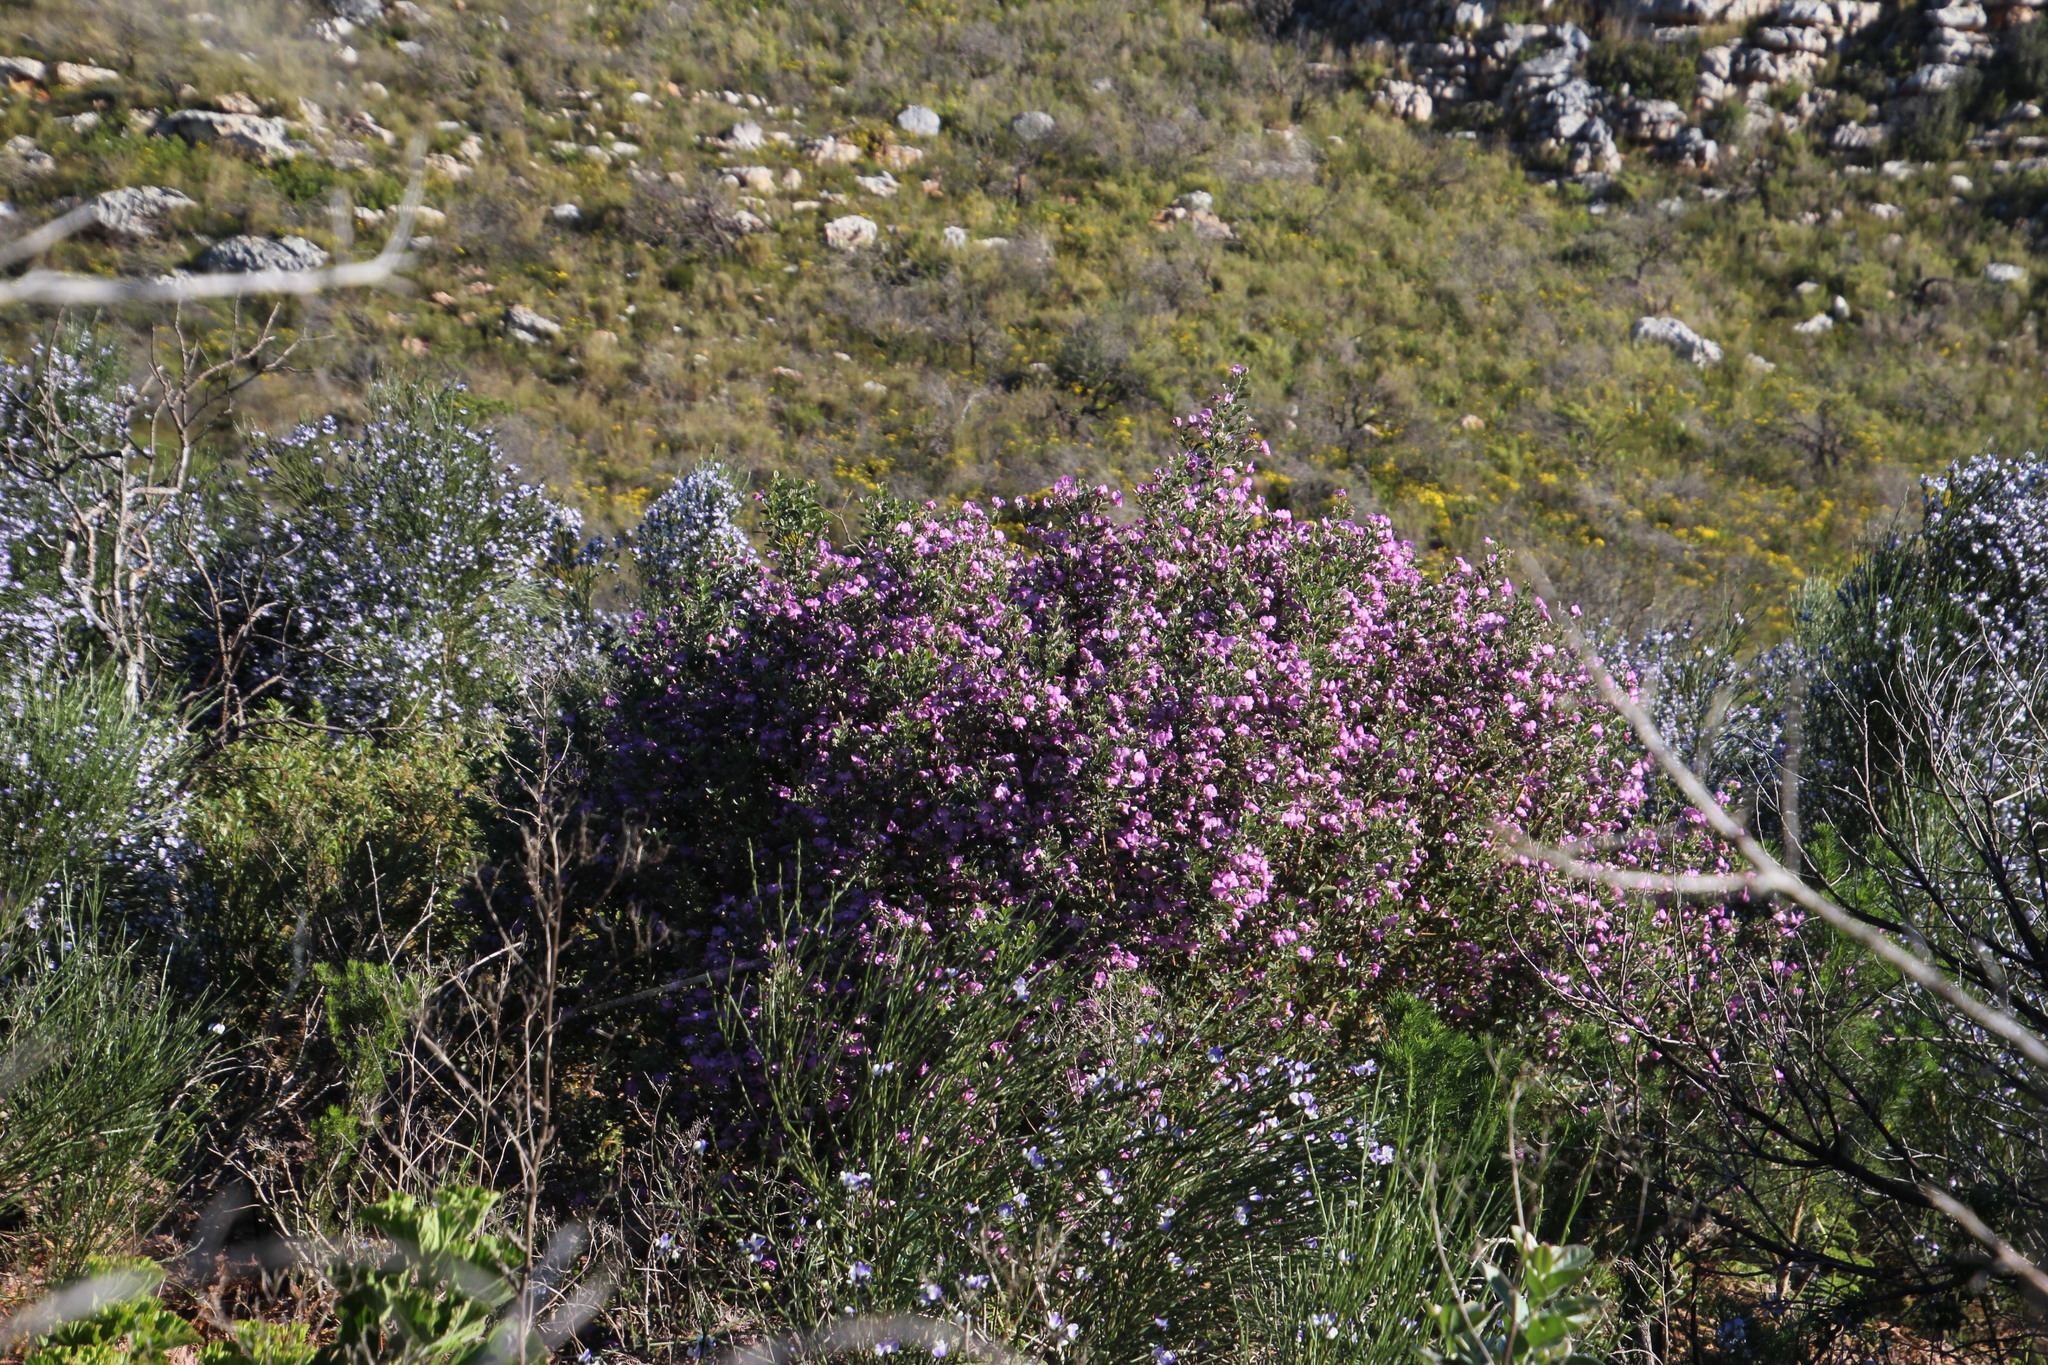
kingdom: Plantae
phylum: Tracheophyta
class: Magnoliopsida
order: Fabales
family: Fabaceae
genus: Podalyria
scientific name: Podalyria calyptrata
